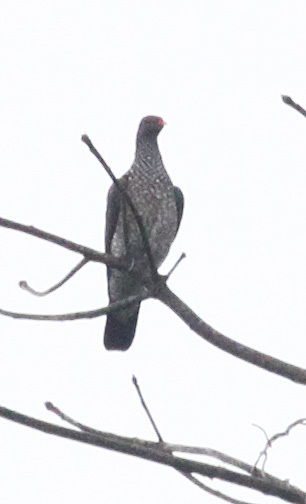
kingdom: Animalia
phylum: Chordata
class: Aves
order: Columbiformes
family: Columbidae
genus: Patagioenas
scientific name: Patagioenas speciosa
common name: Scaled pigeon
